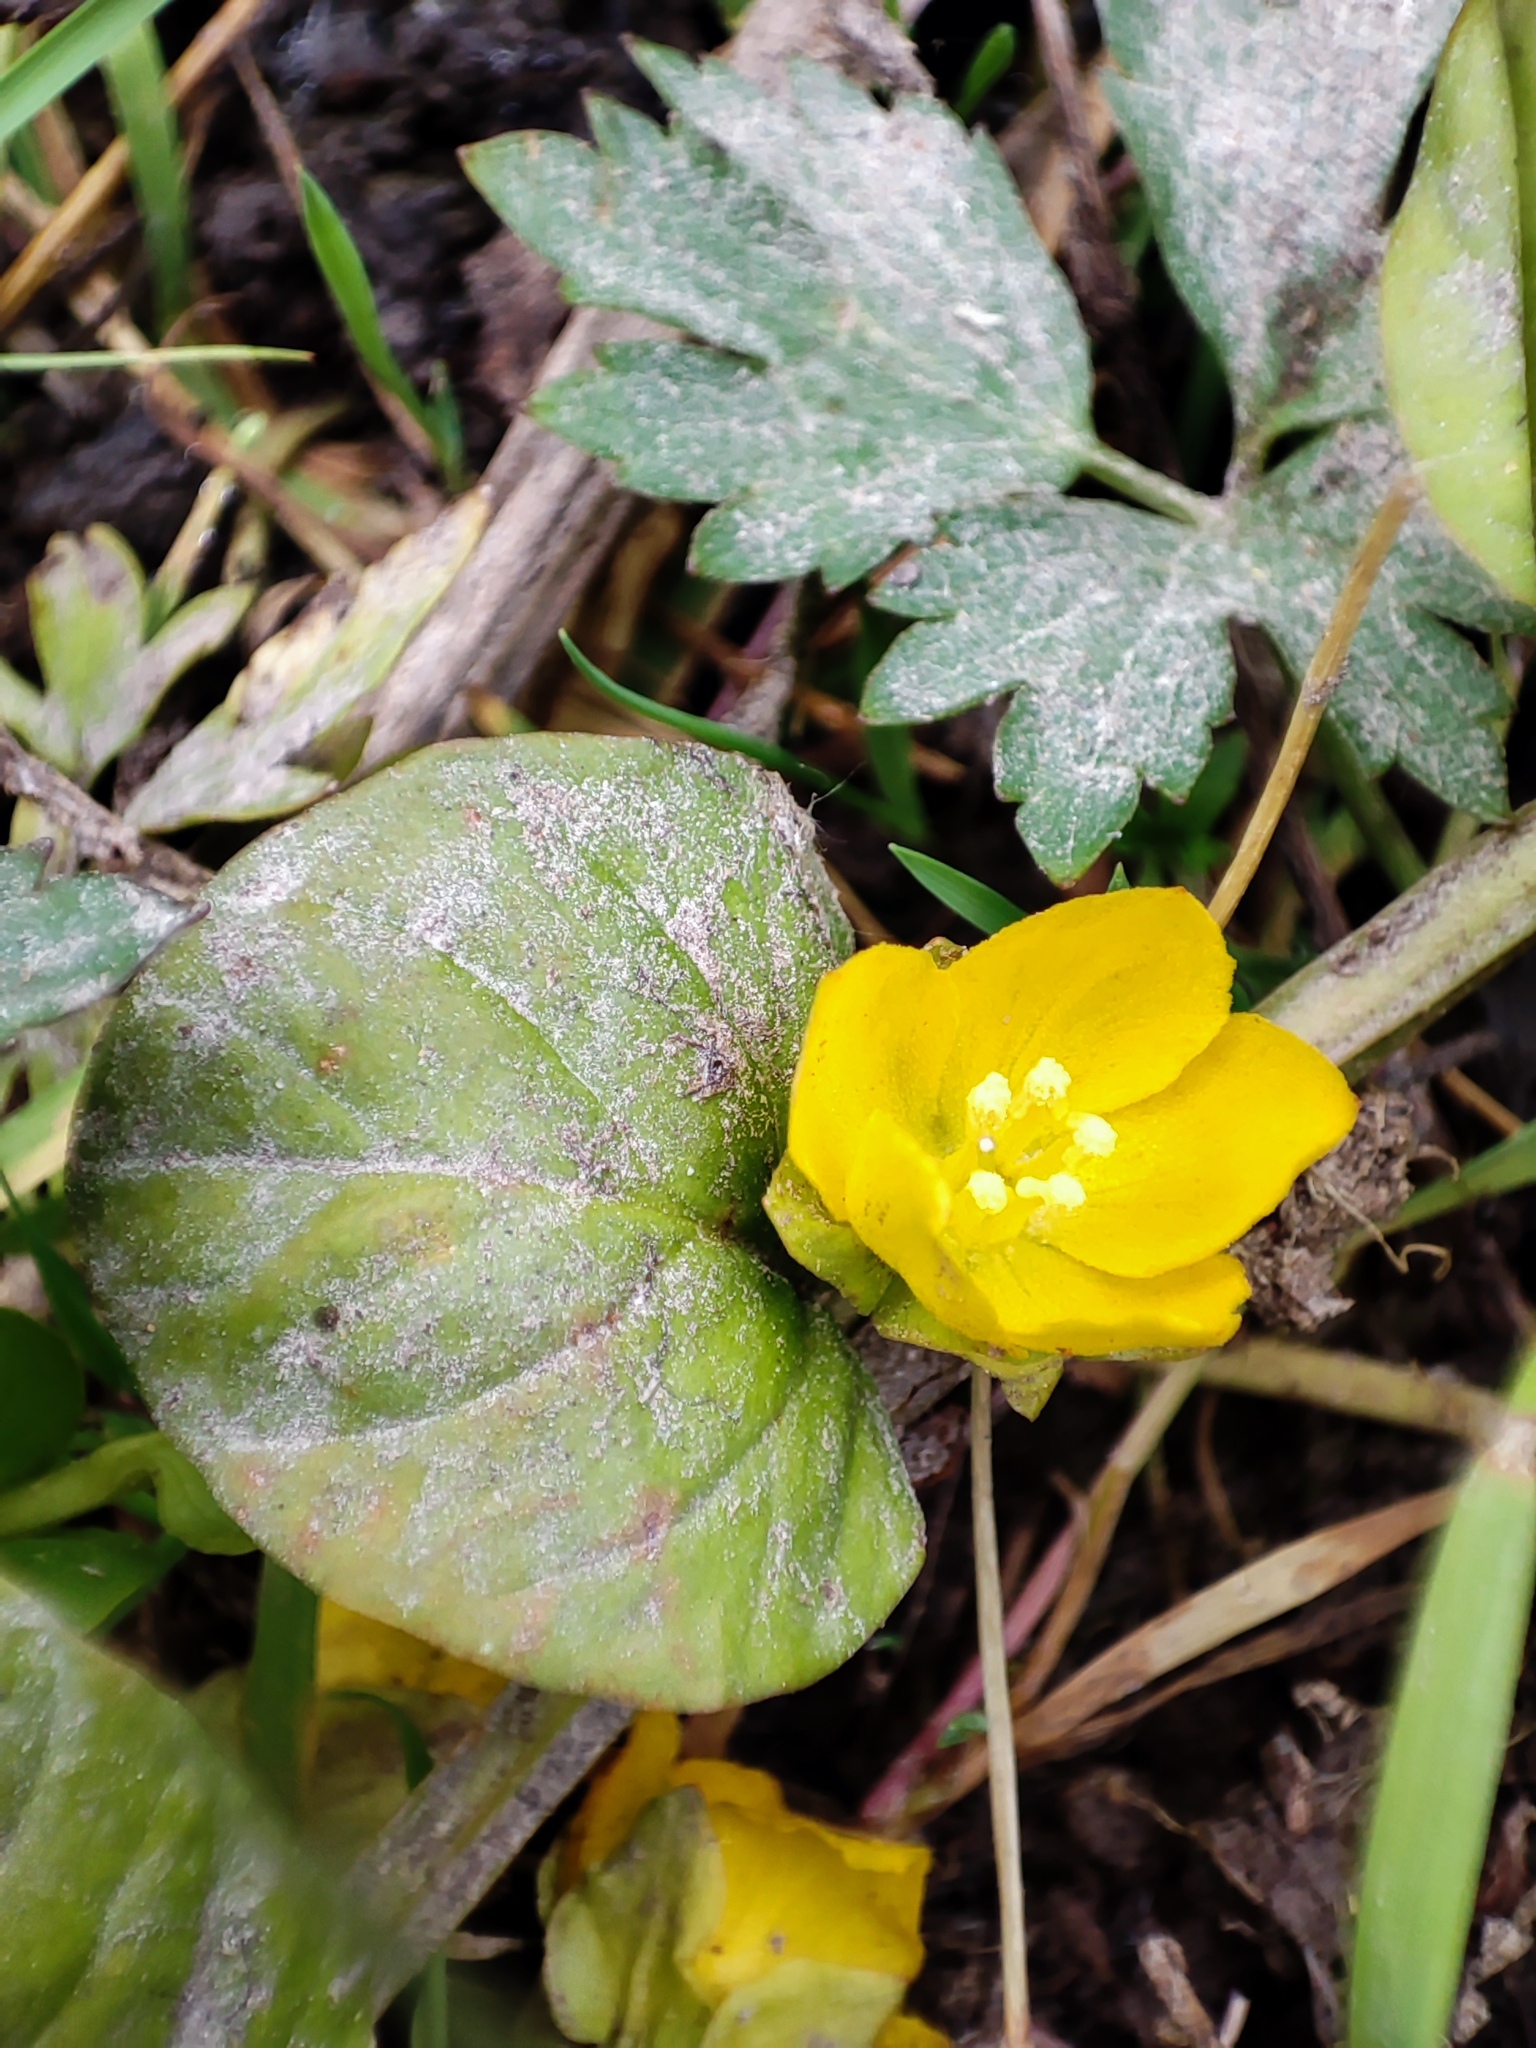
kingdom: Plantae
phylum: Tracheophyta
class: Magnoliopsida
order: Ericales
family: Primulaceae
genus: Lysimachia
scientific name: Lysimachia nummularia
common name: Moneywort
